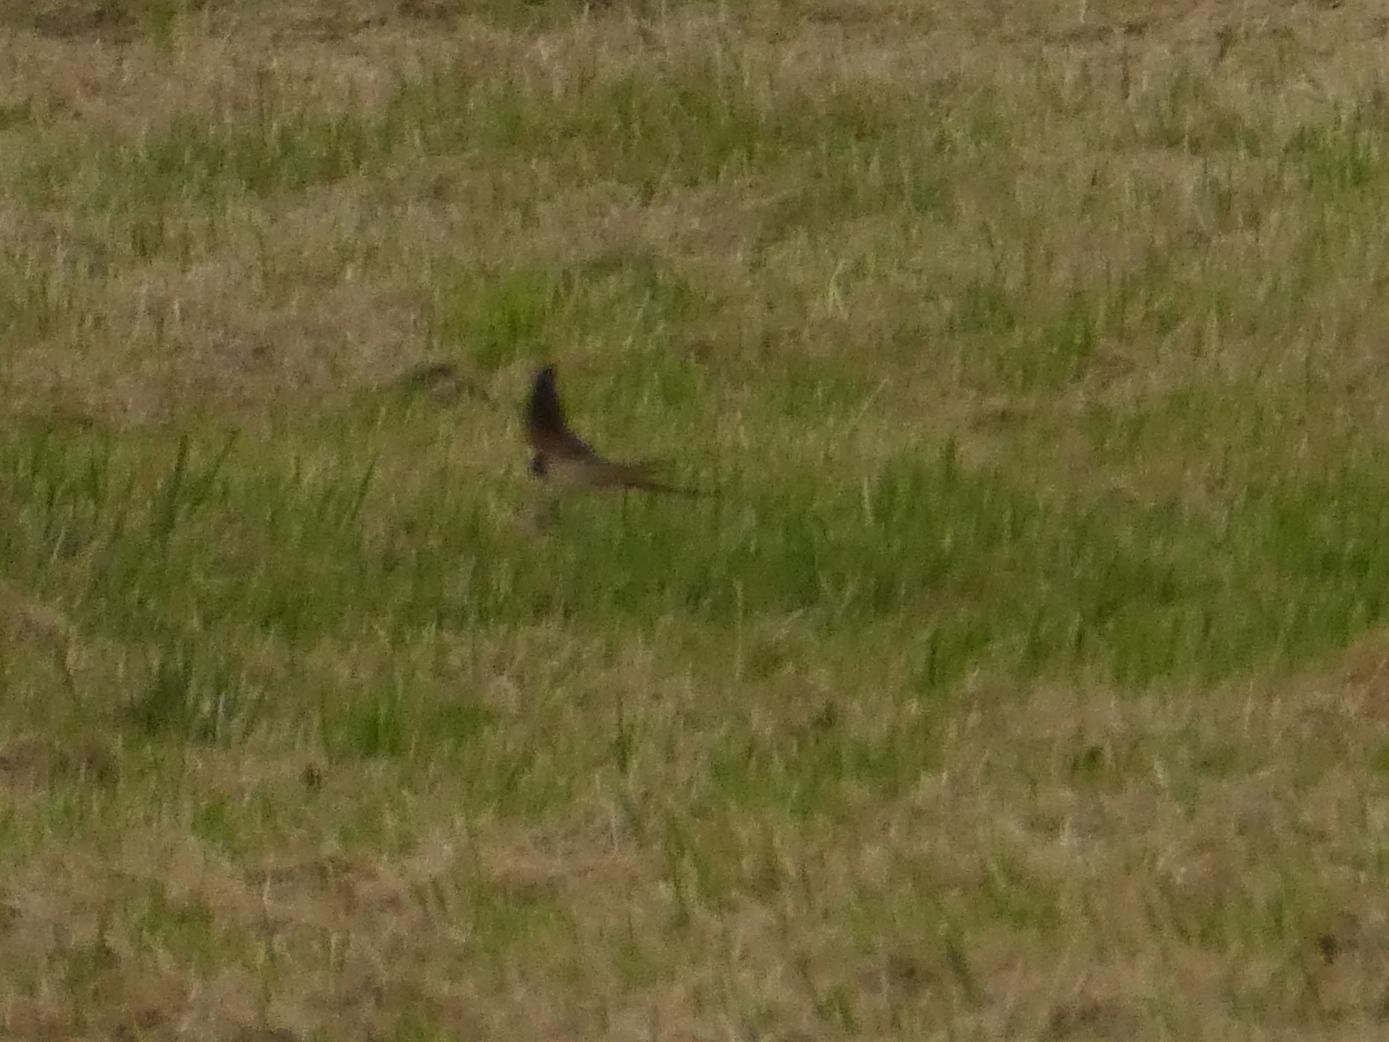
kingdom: Animalia
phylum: Chordata
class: Aves
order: Passeriformes
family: Hirundinidae
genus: Hirundo
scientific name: Hirundo rustica
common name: Barn swallow
